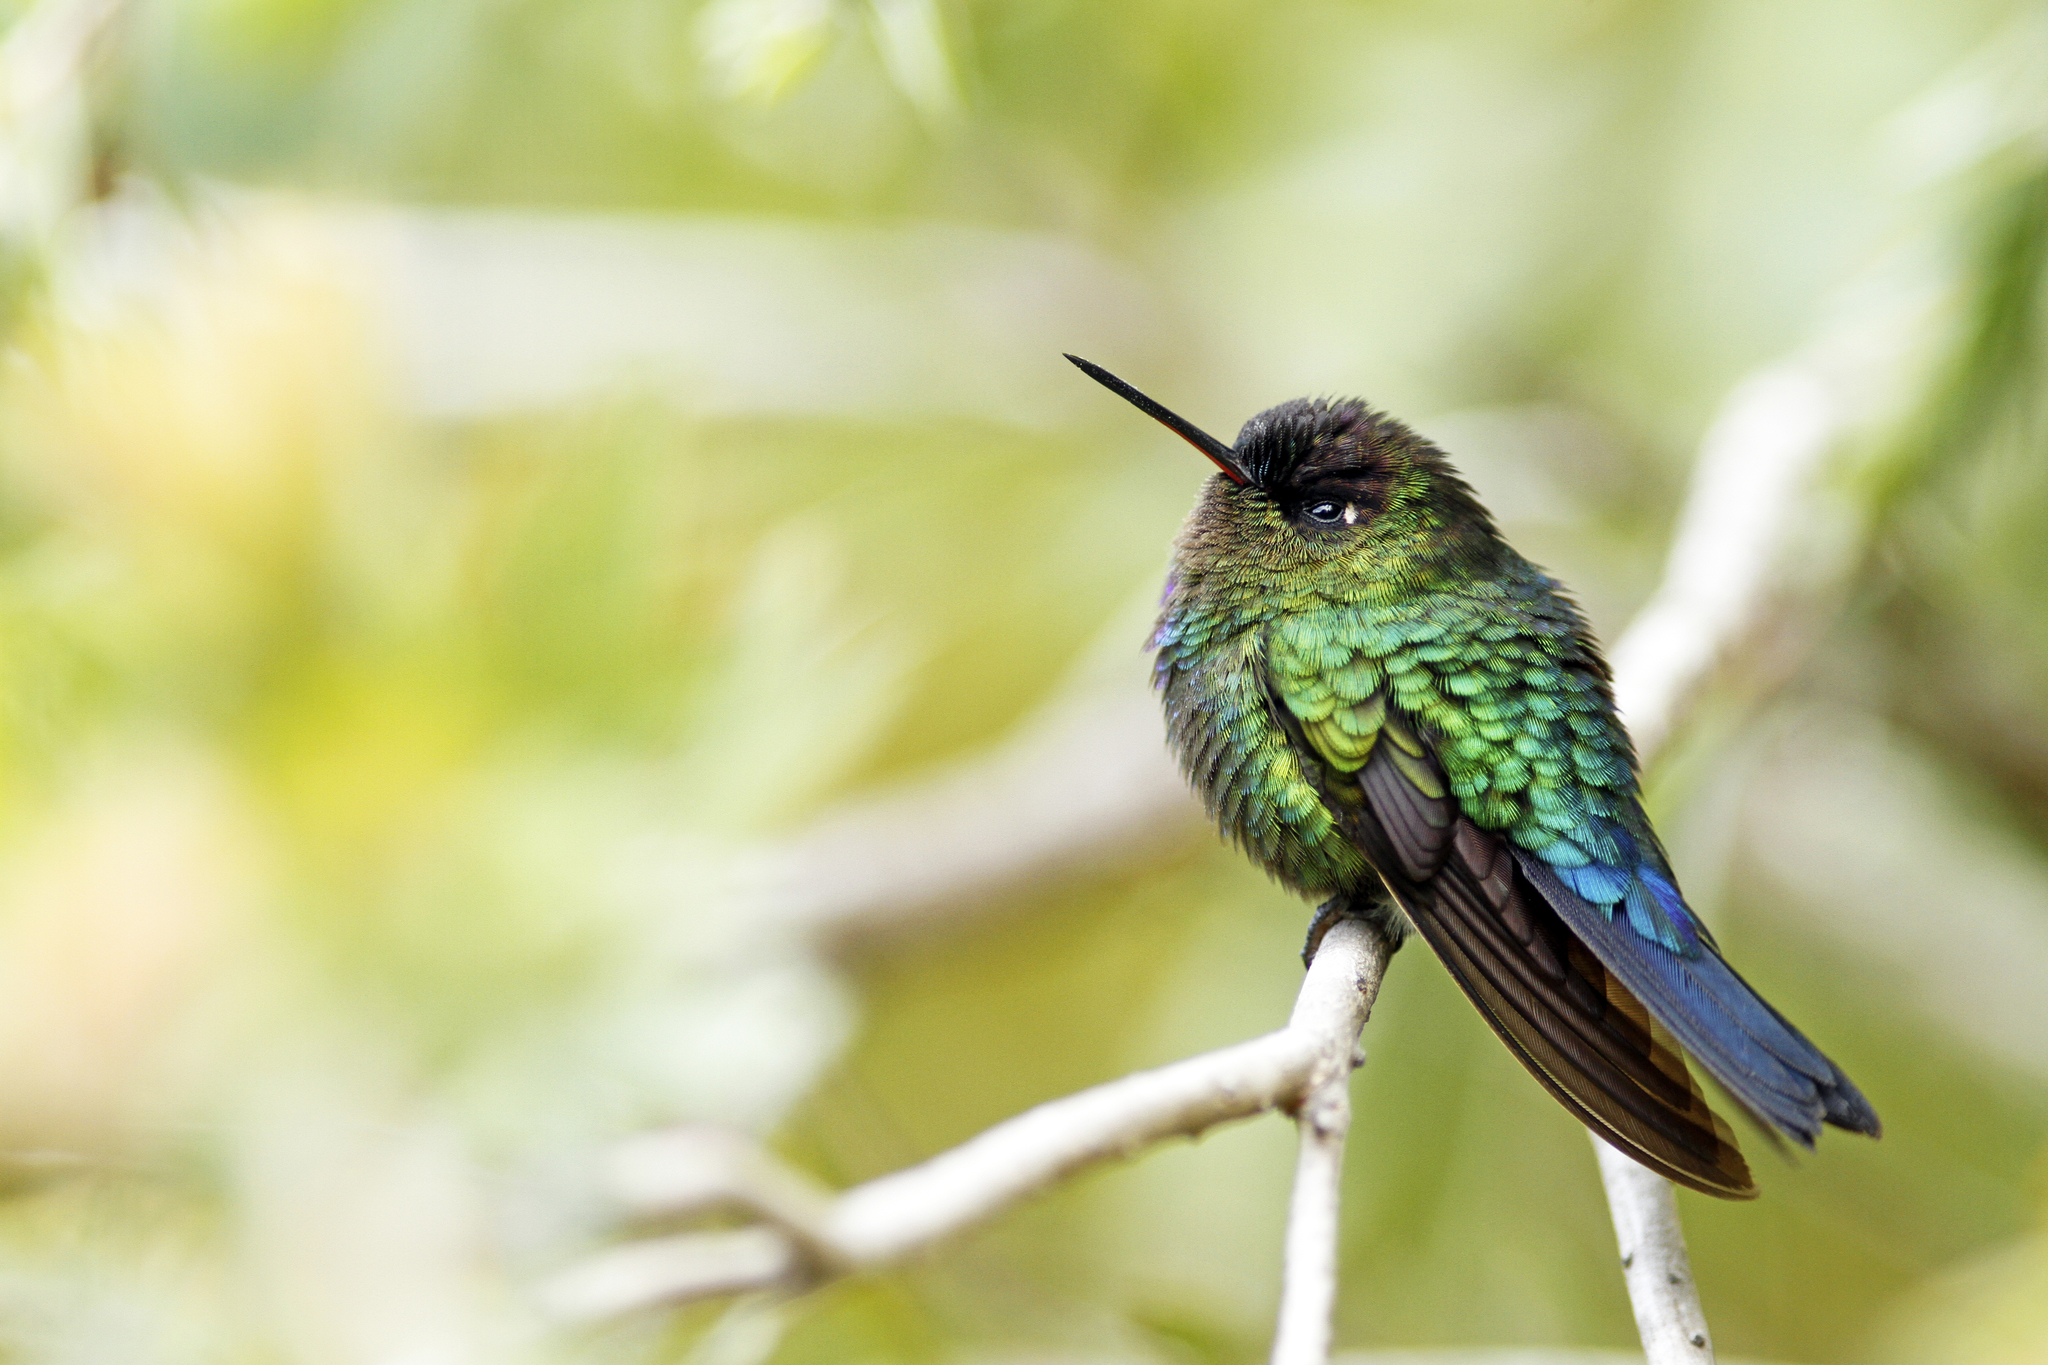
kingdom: Animalia
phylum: Chordata
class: Aves
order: Apodiformes
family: Trochilidae
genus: Panterpe
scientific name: Panterpe insignis
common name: Fiery-throated hummingbird
